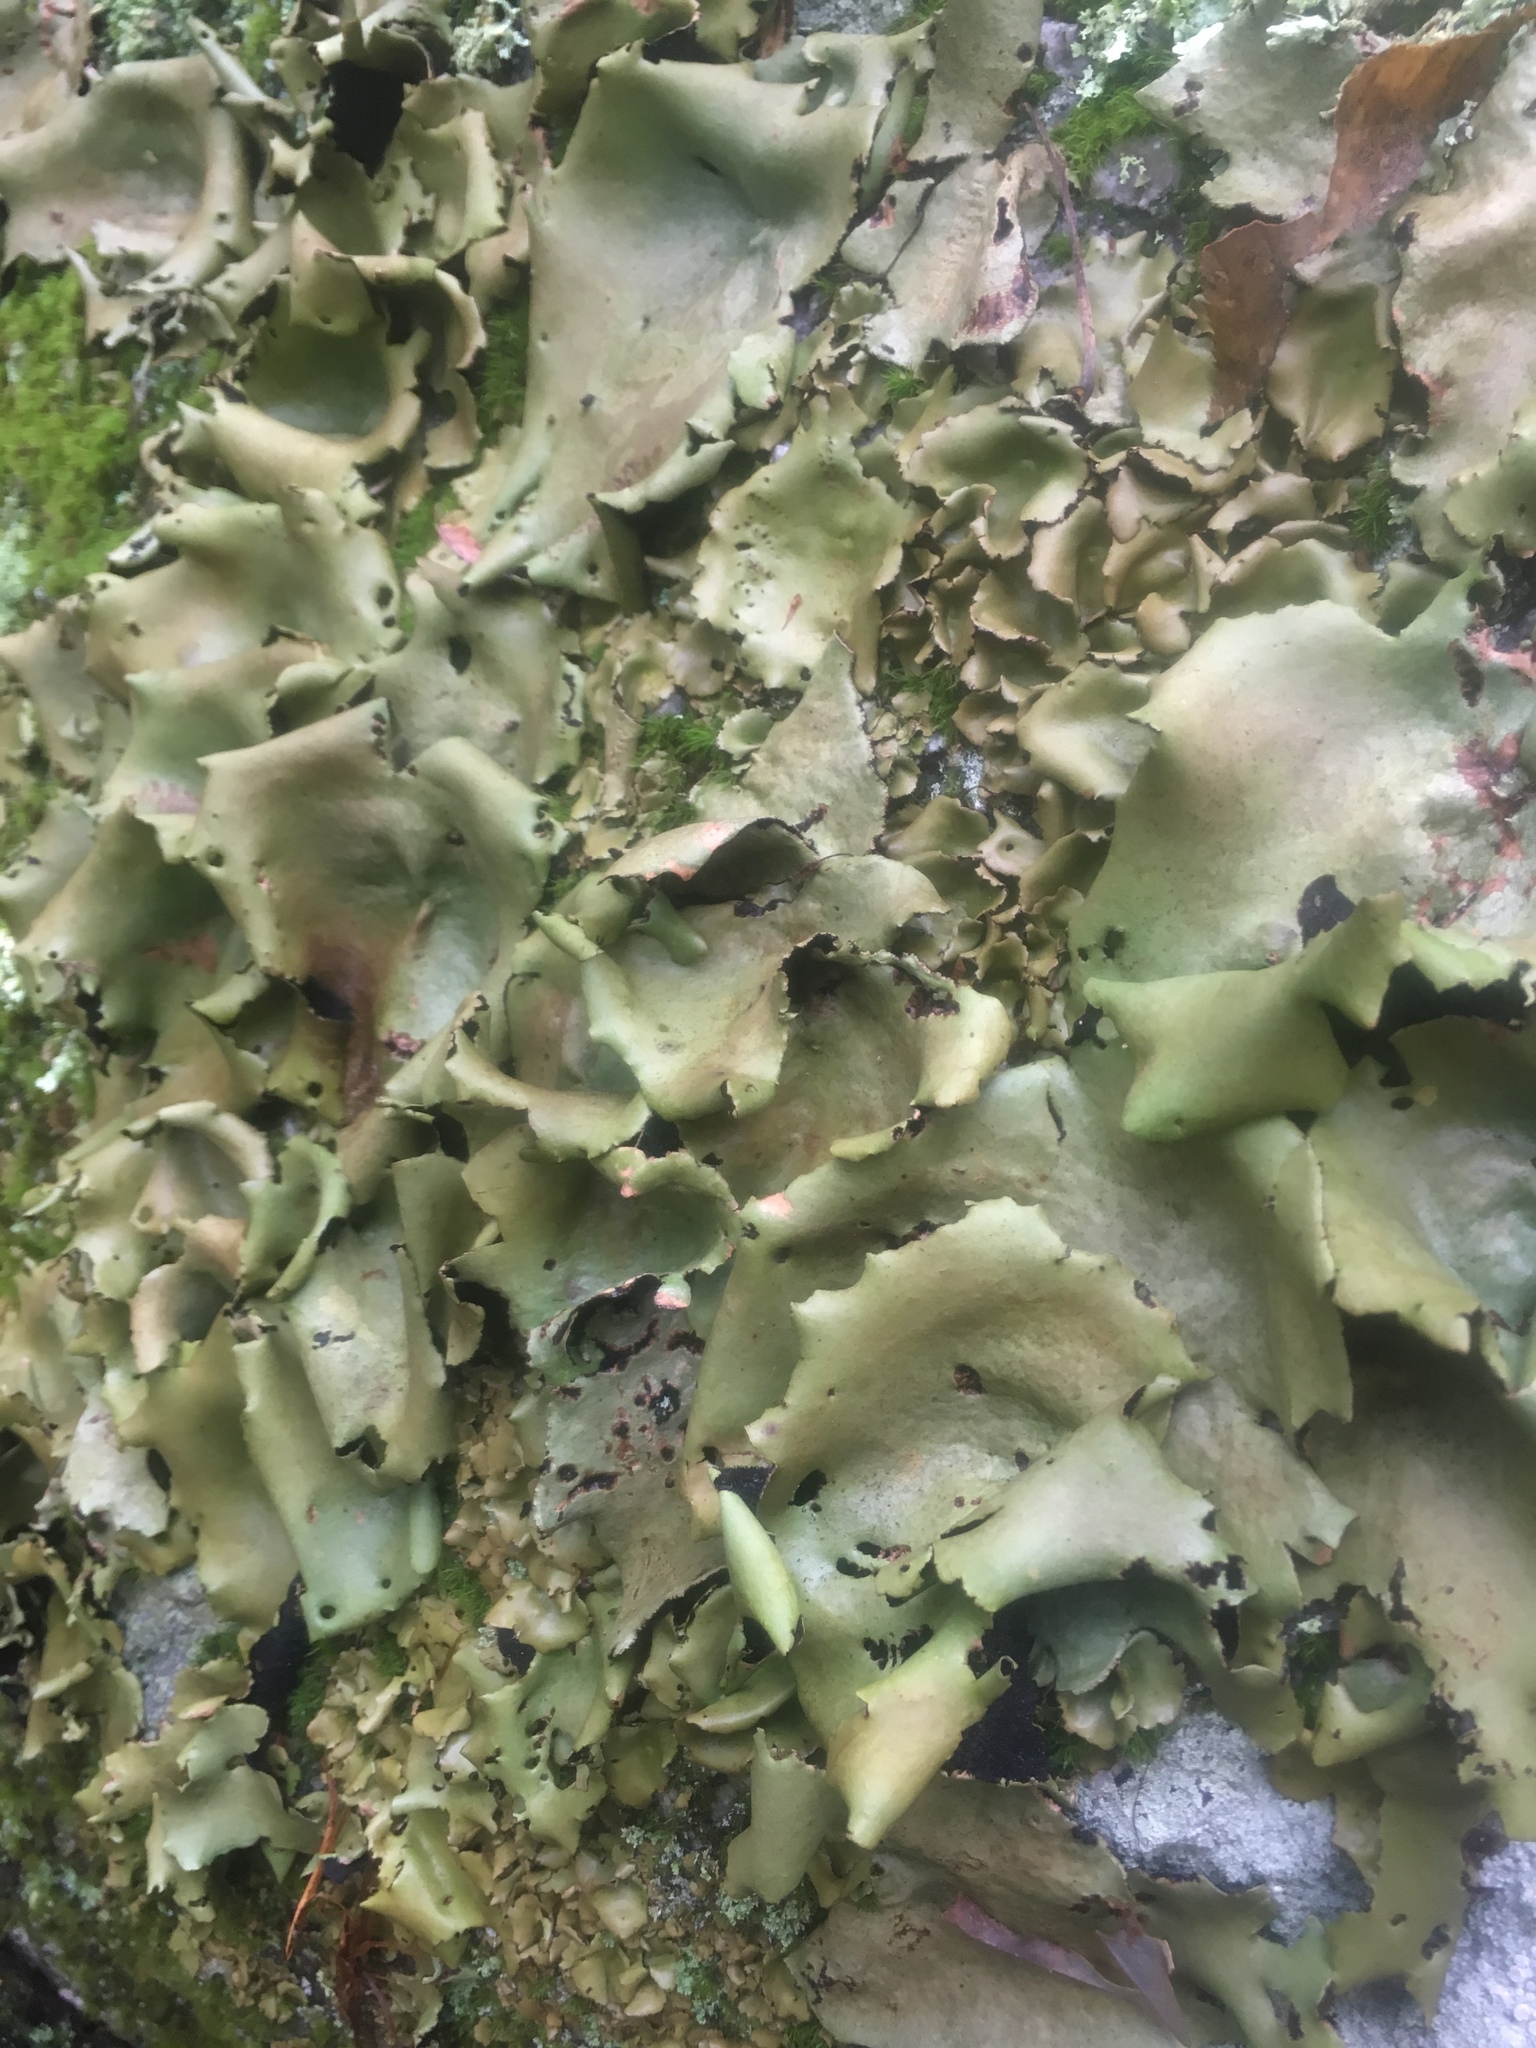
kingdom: Fungi
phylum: Ascomycota
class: Lecanoromycetes
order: Umbilicariales
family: Umbilicariaceae
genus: Umbilicaria
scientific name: Umbilicaria mammulata
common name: Smooth rock tripe
